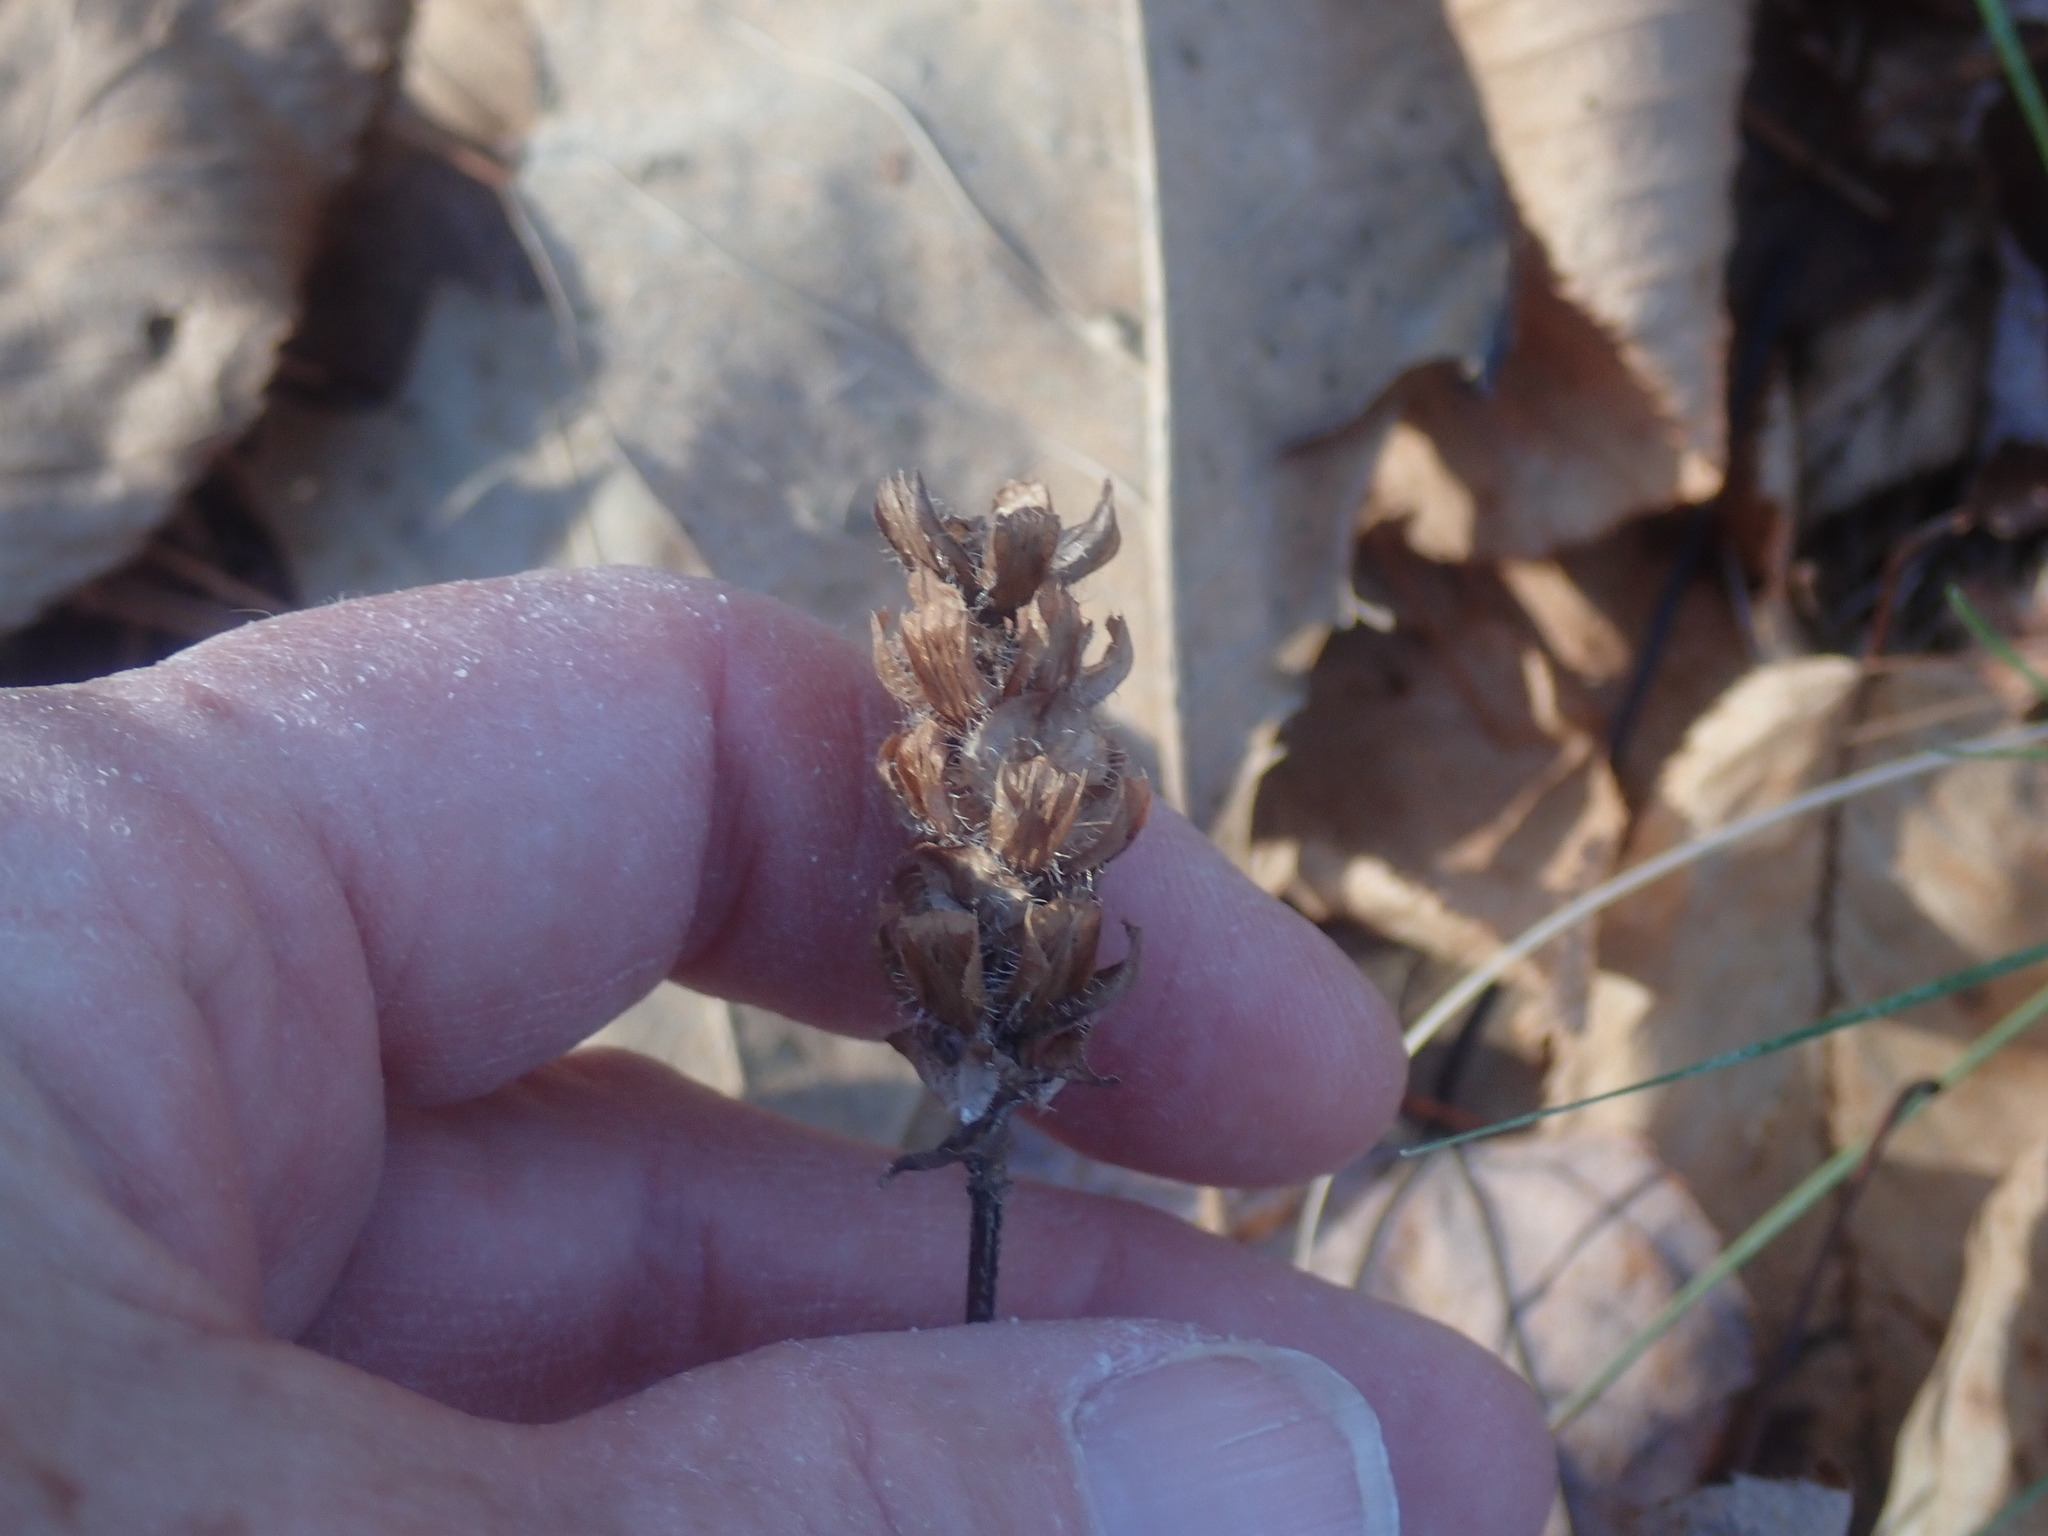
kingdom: Plantae
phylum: Tracheophyta
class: Magnoliopsida
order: Lamiales
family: Lamiaceae
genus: Prunella
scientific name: Prunella vulgaris
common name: Heal-all
